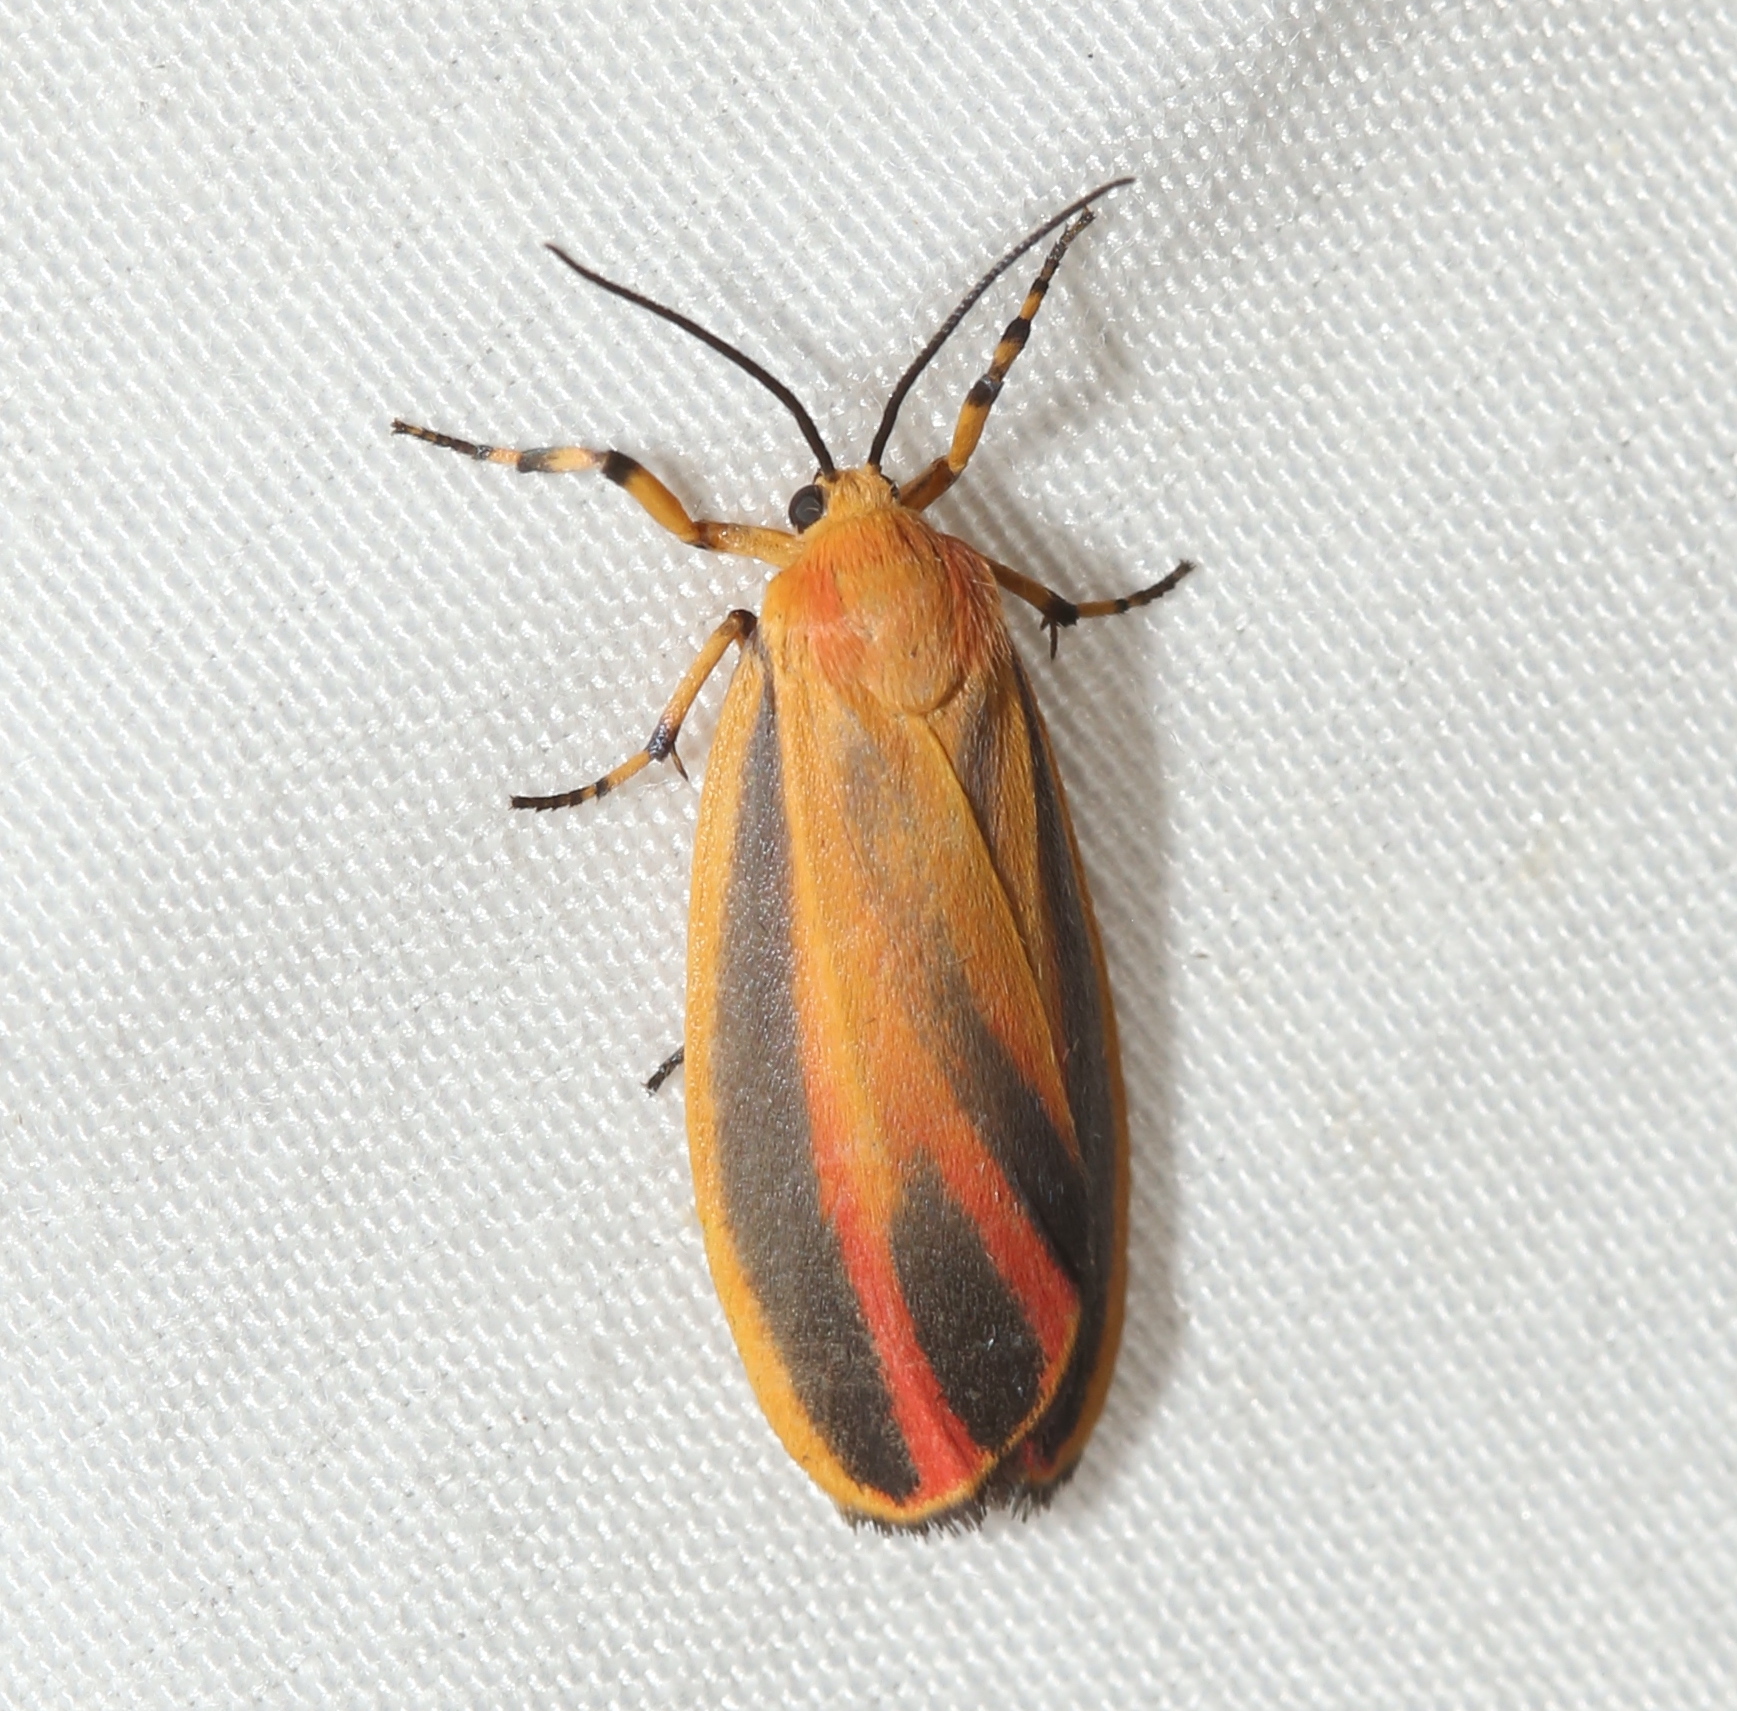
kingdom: Animalia
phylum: Arthropoda
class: Insecta
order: Lepidoptera
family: Erebidae
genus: Hypoprepia
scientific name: Hypoprepia fucosa
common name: Painted lichen moth
